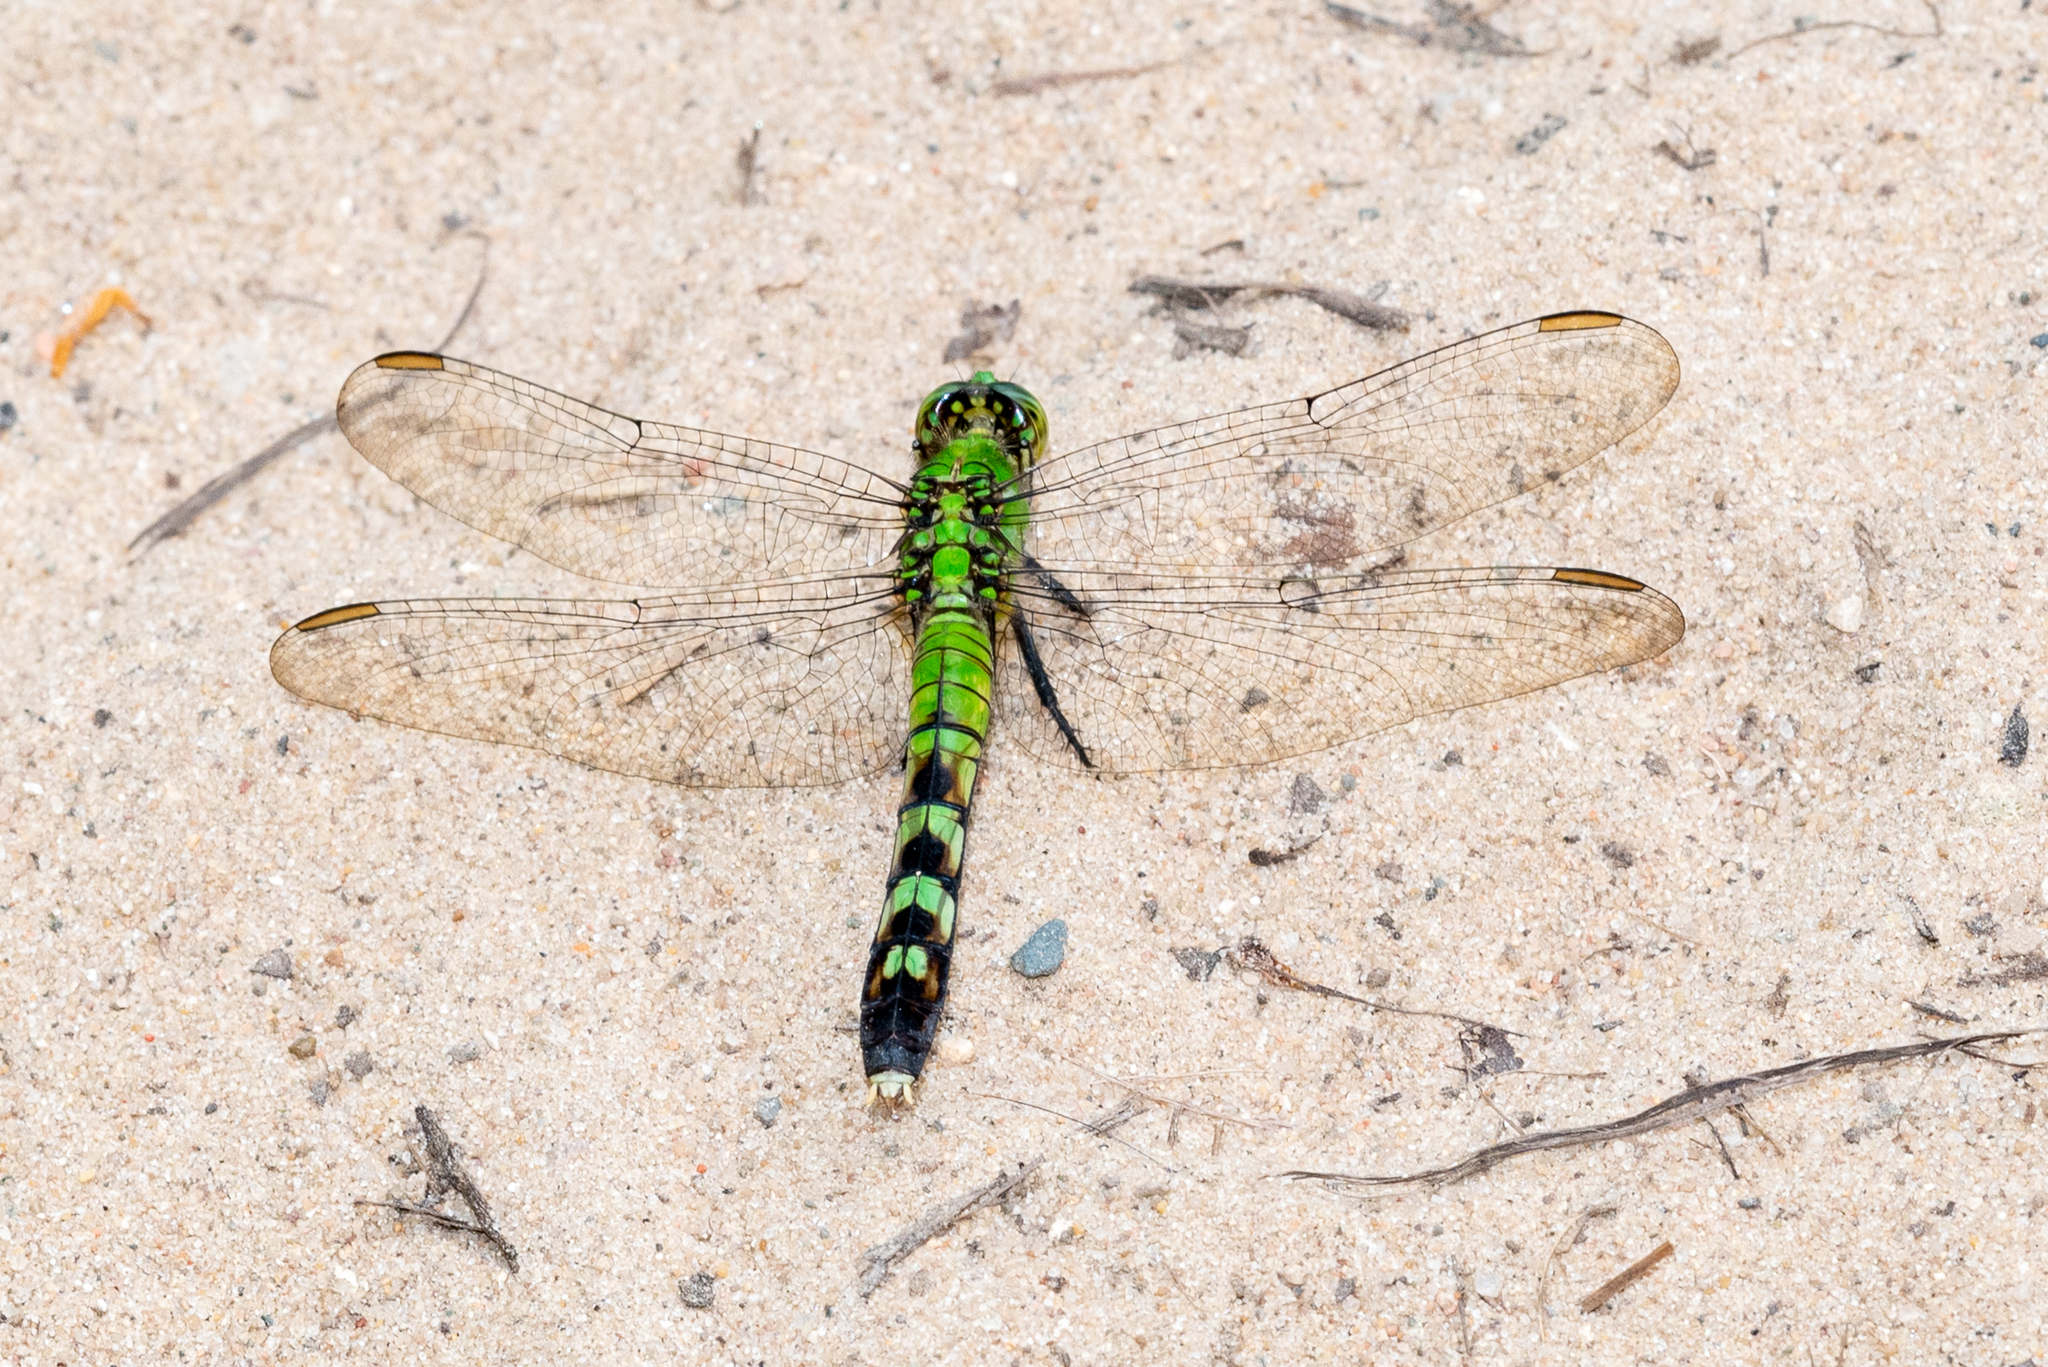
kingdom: Animalia
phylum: Arthropoda
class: Insecta
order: Odonata
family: Libellulidae
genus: Erythemis
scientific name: Erythemis simplicicollis
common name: Eastern pondhawk
